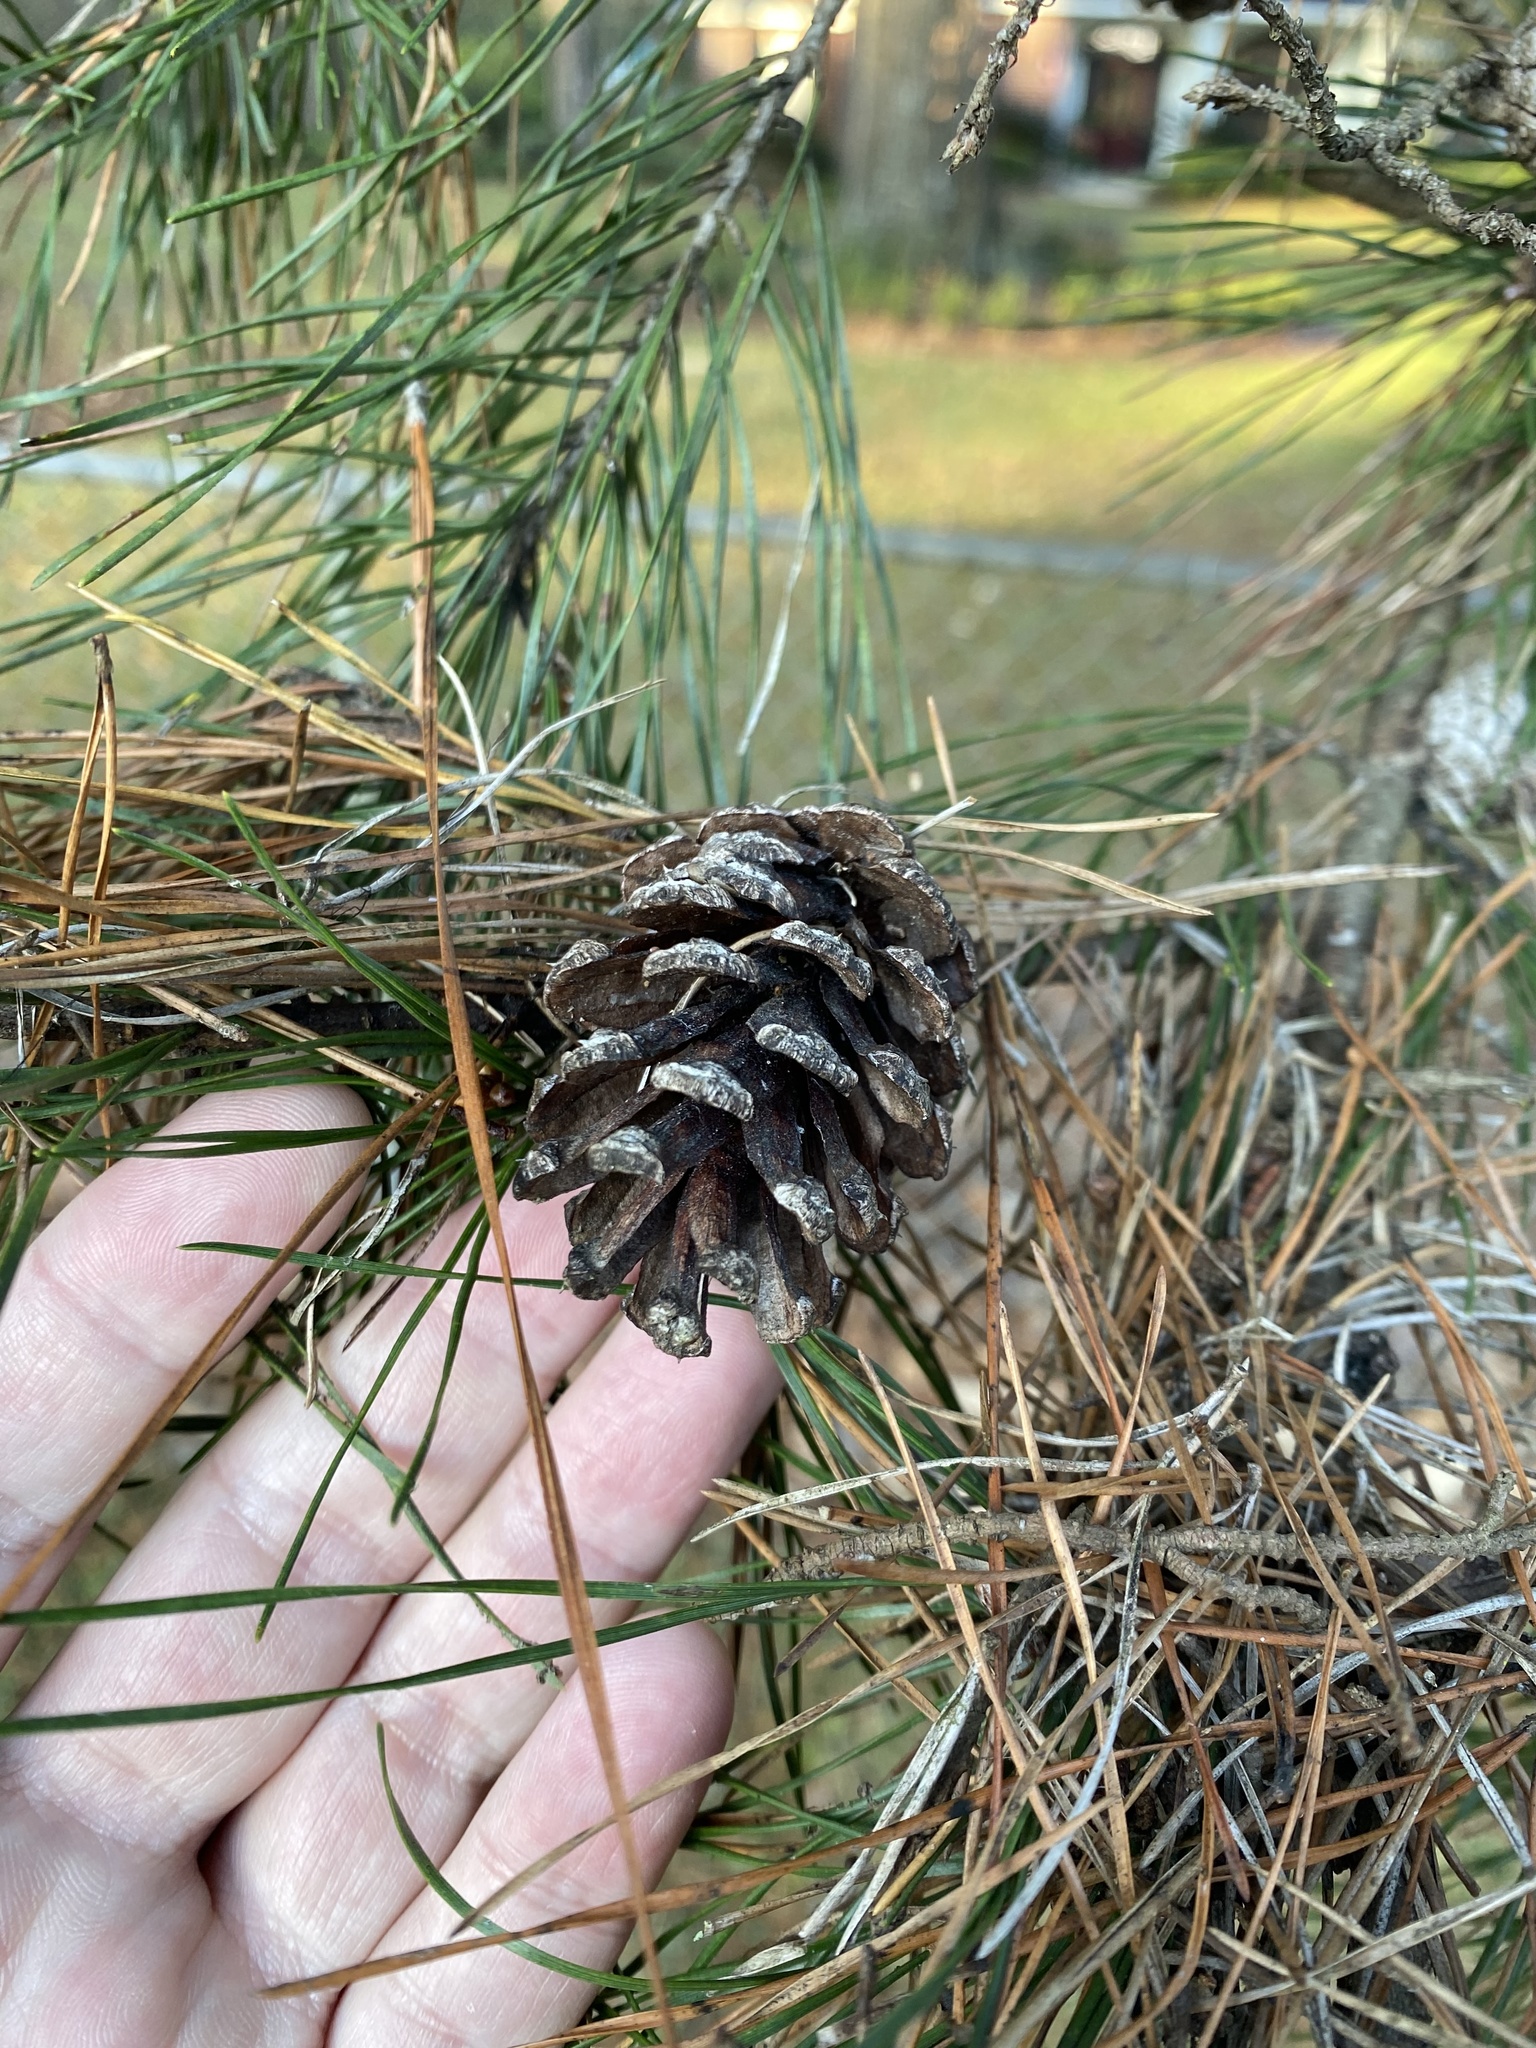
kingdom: Plantae
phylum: Tracheophyta
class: Pinopsida
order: Pinales
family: Pinaceae
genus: Pinus
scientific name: Pinus glabra
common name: Spruce pine
